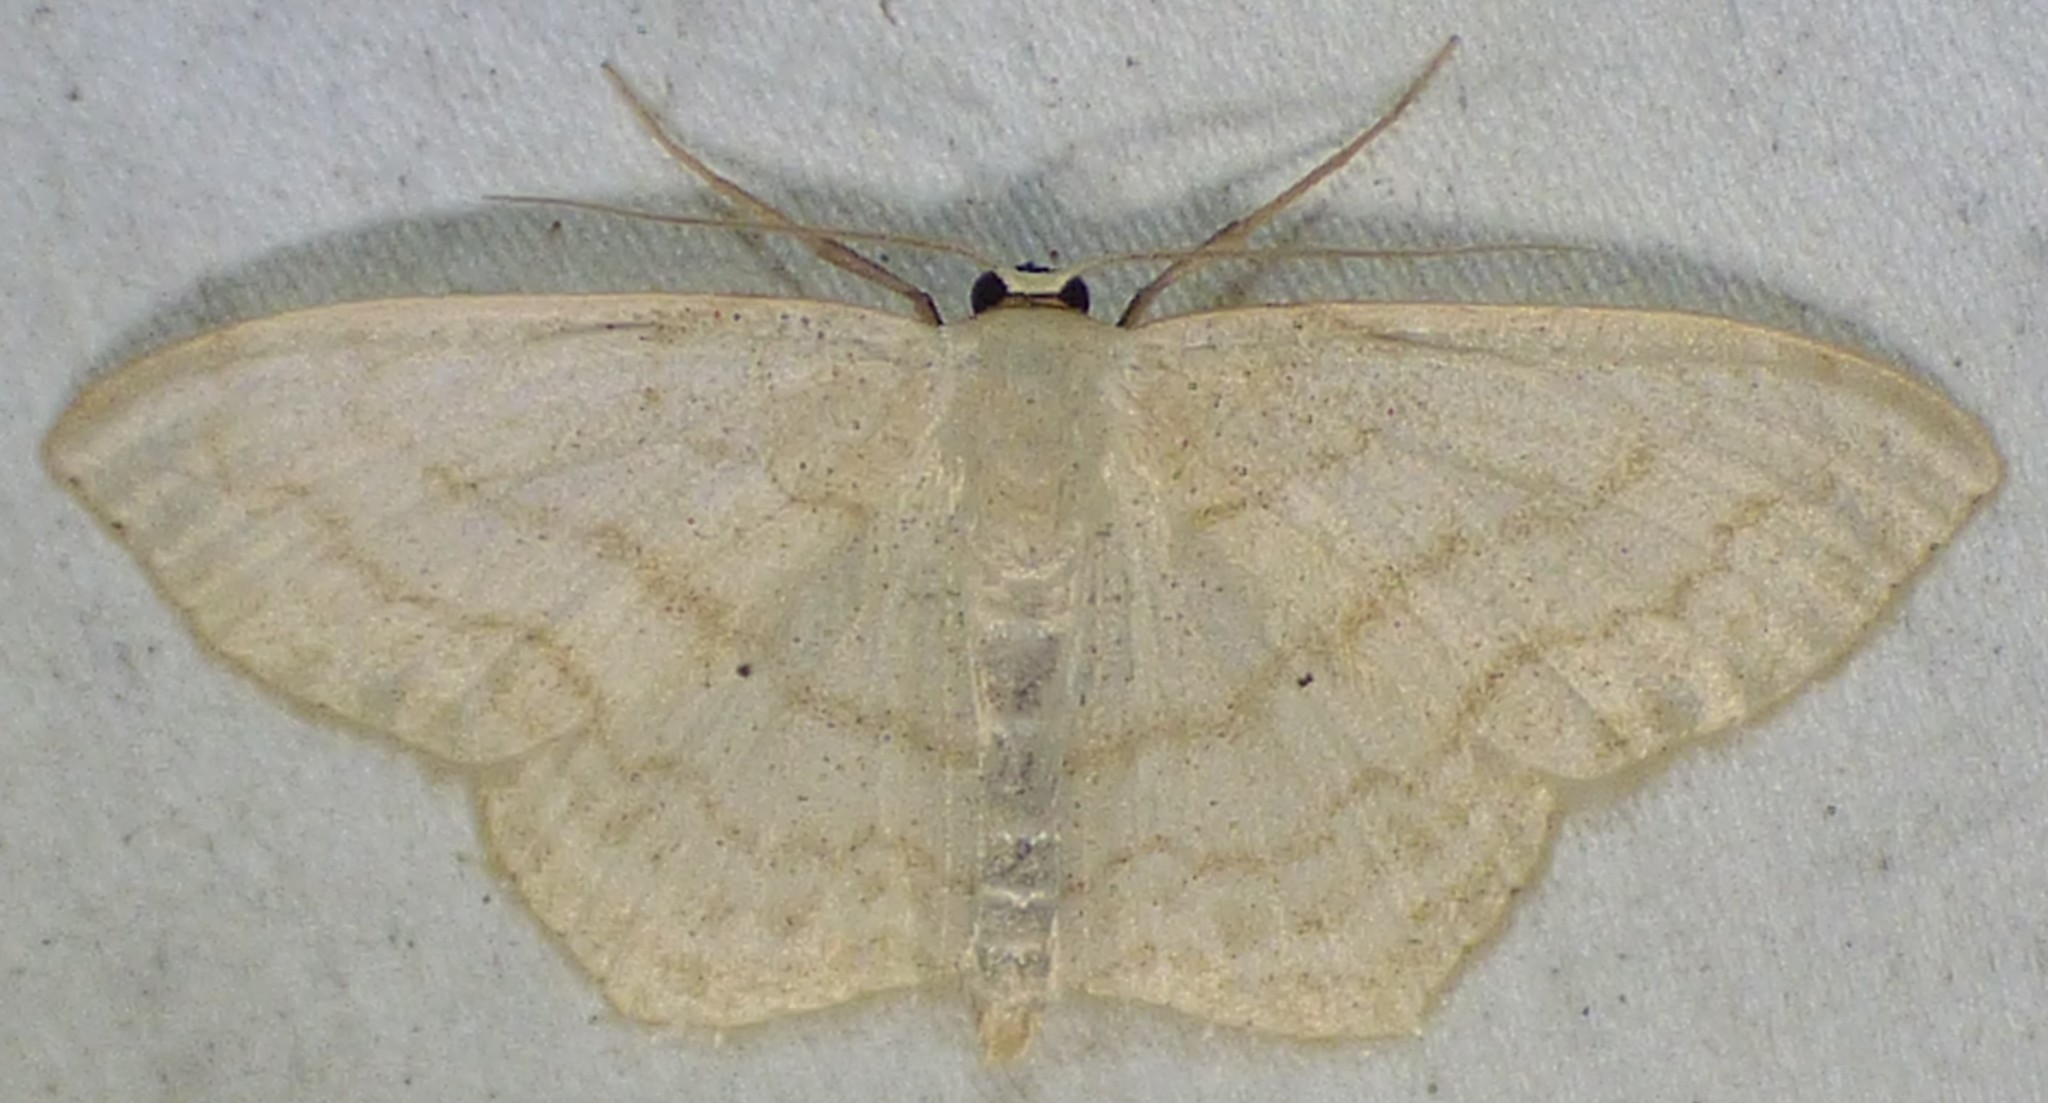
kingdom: Animalia
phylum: Arthropoda
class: Insecta
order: Lepidoptera
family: Geometridae
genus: Scopula
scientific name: Scopula limboundata
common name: Large lace border
